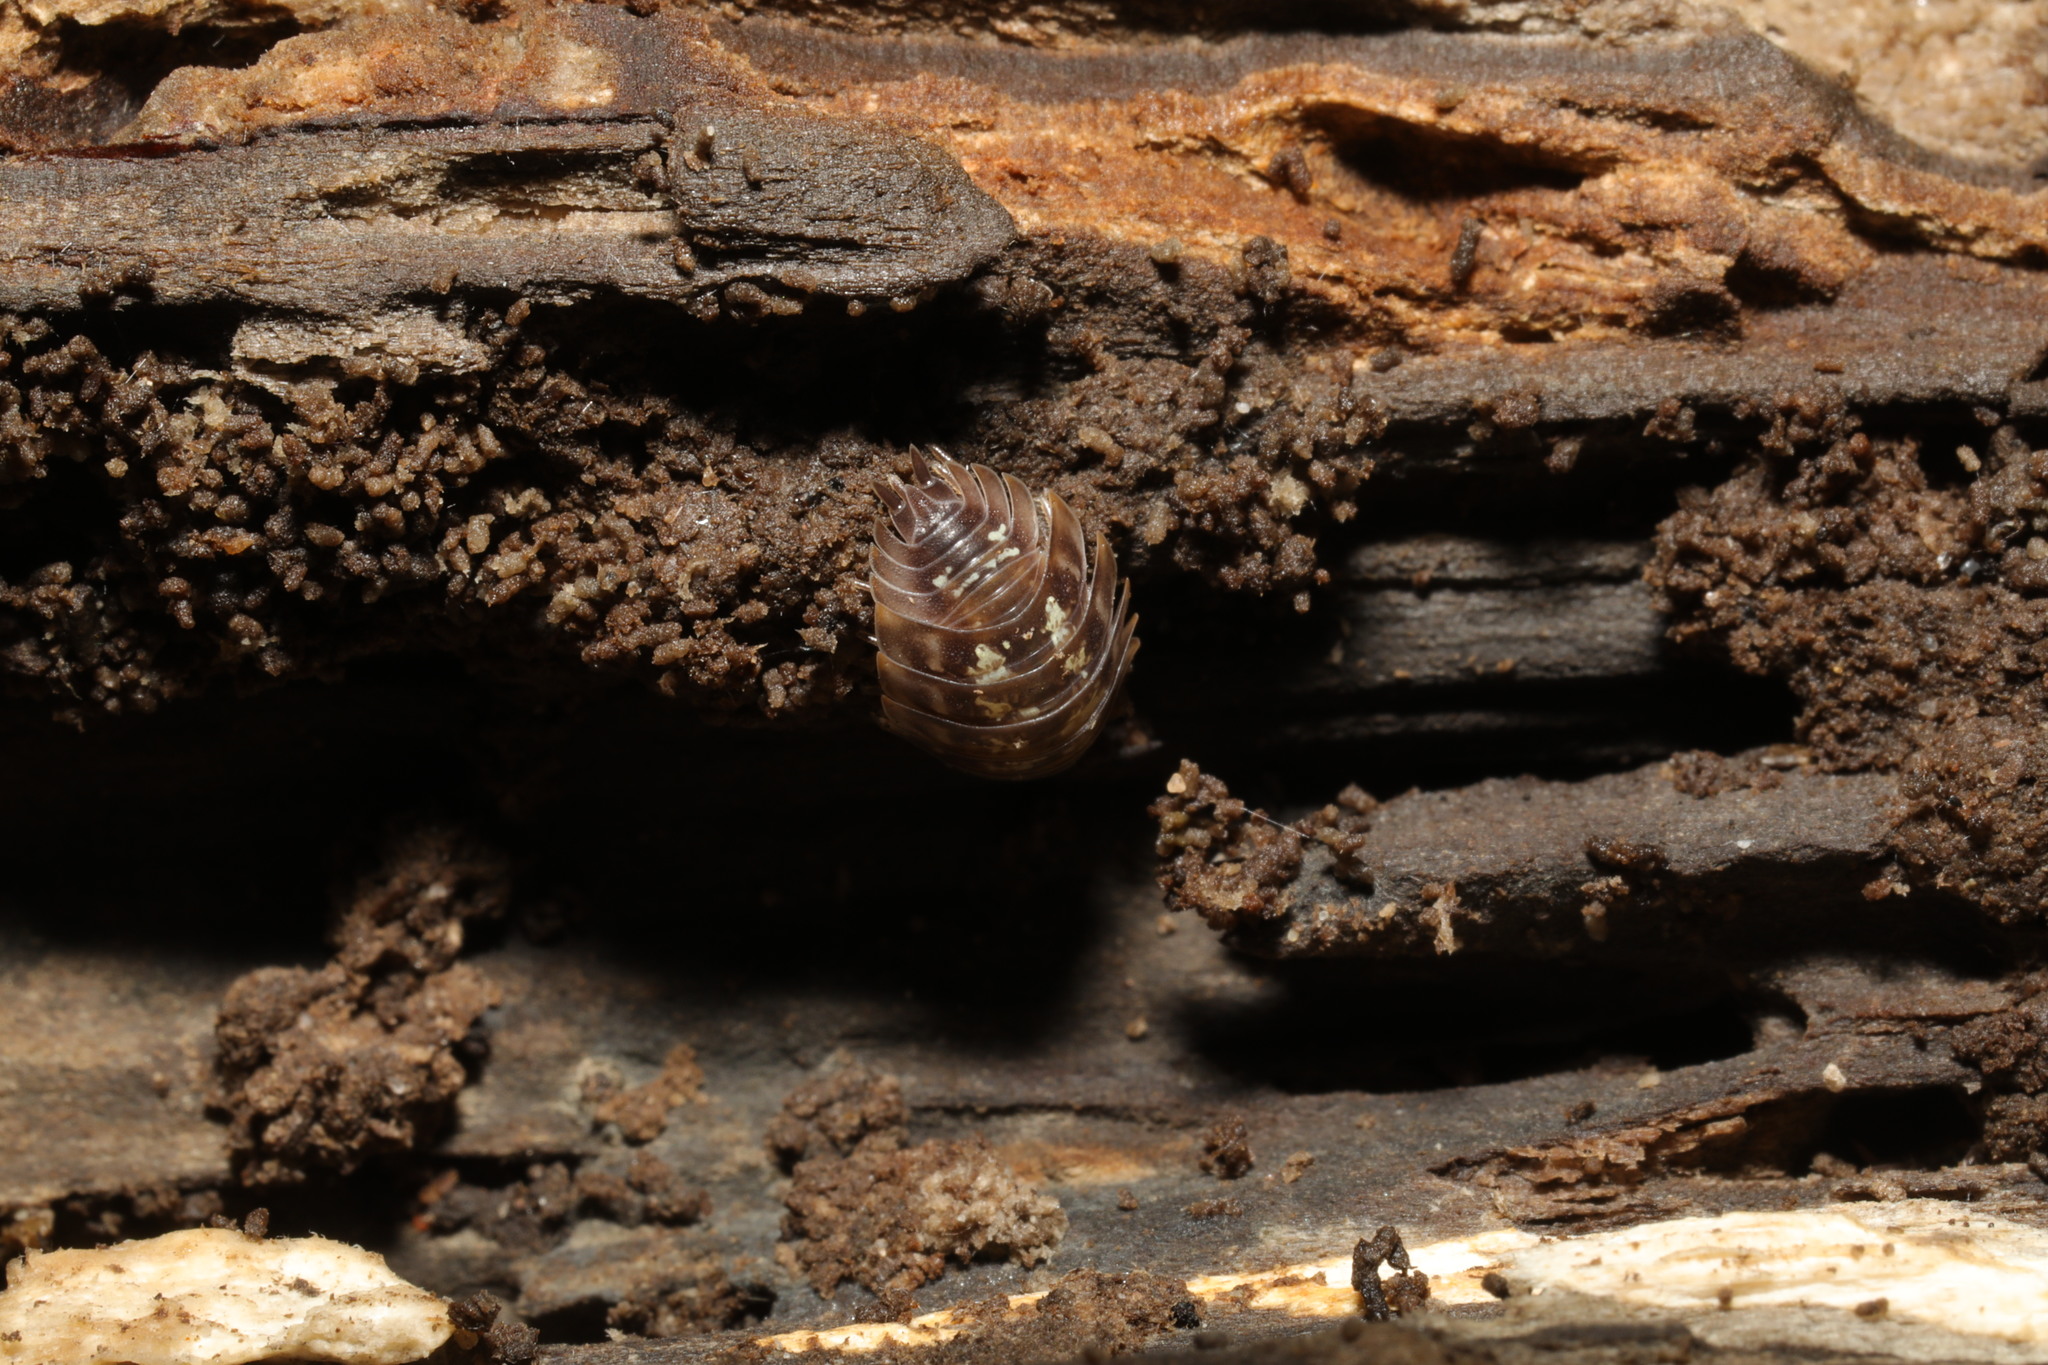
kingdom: Animalia
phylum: Arthropoda
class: Malacostraca
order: Isopoda
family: Oniscidae
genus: Oniscus
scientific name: Oniscus asellus
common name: Common shiny woodlouse
